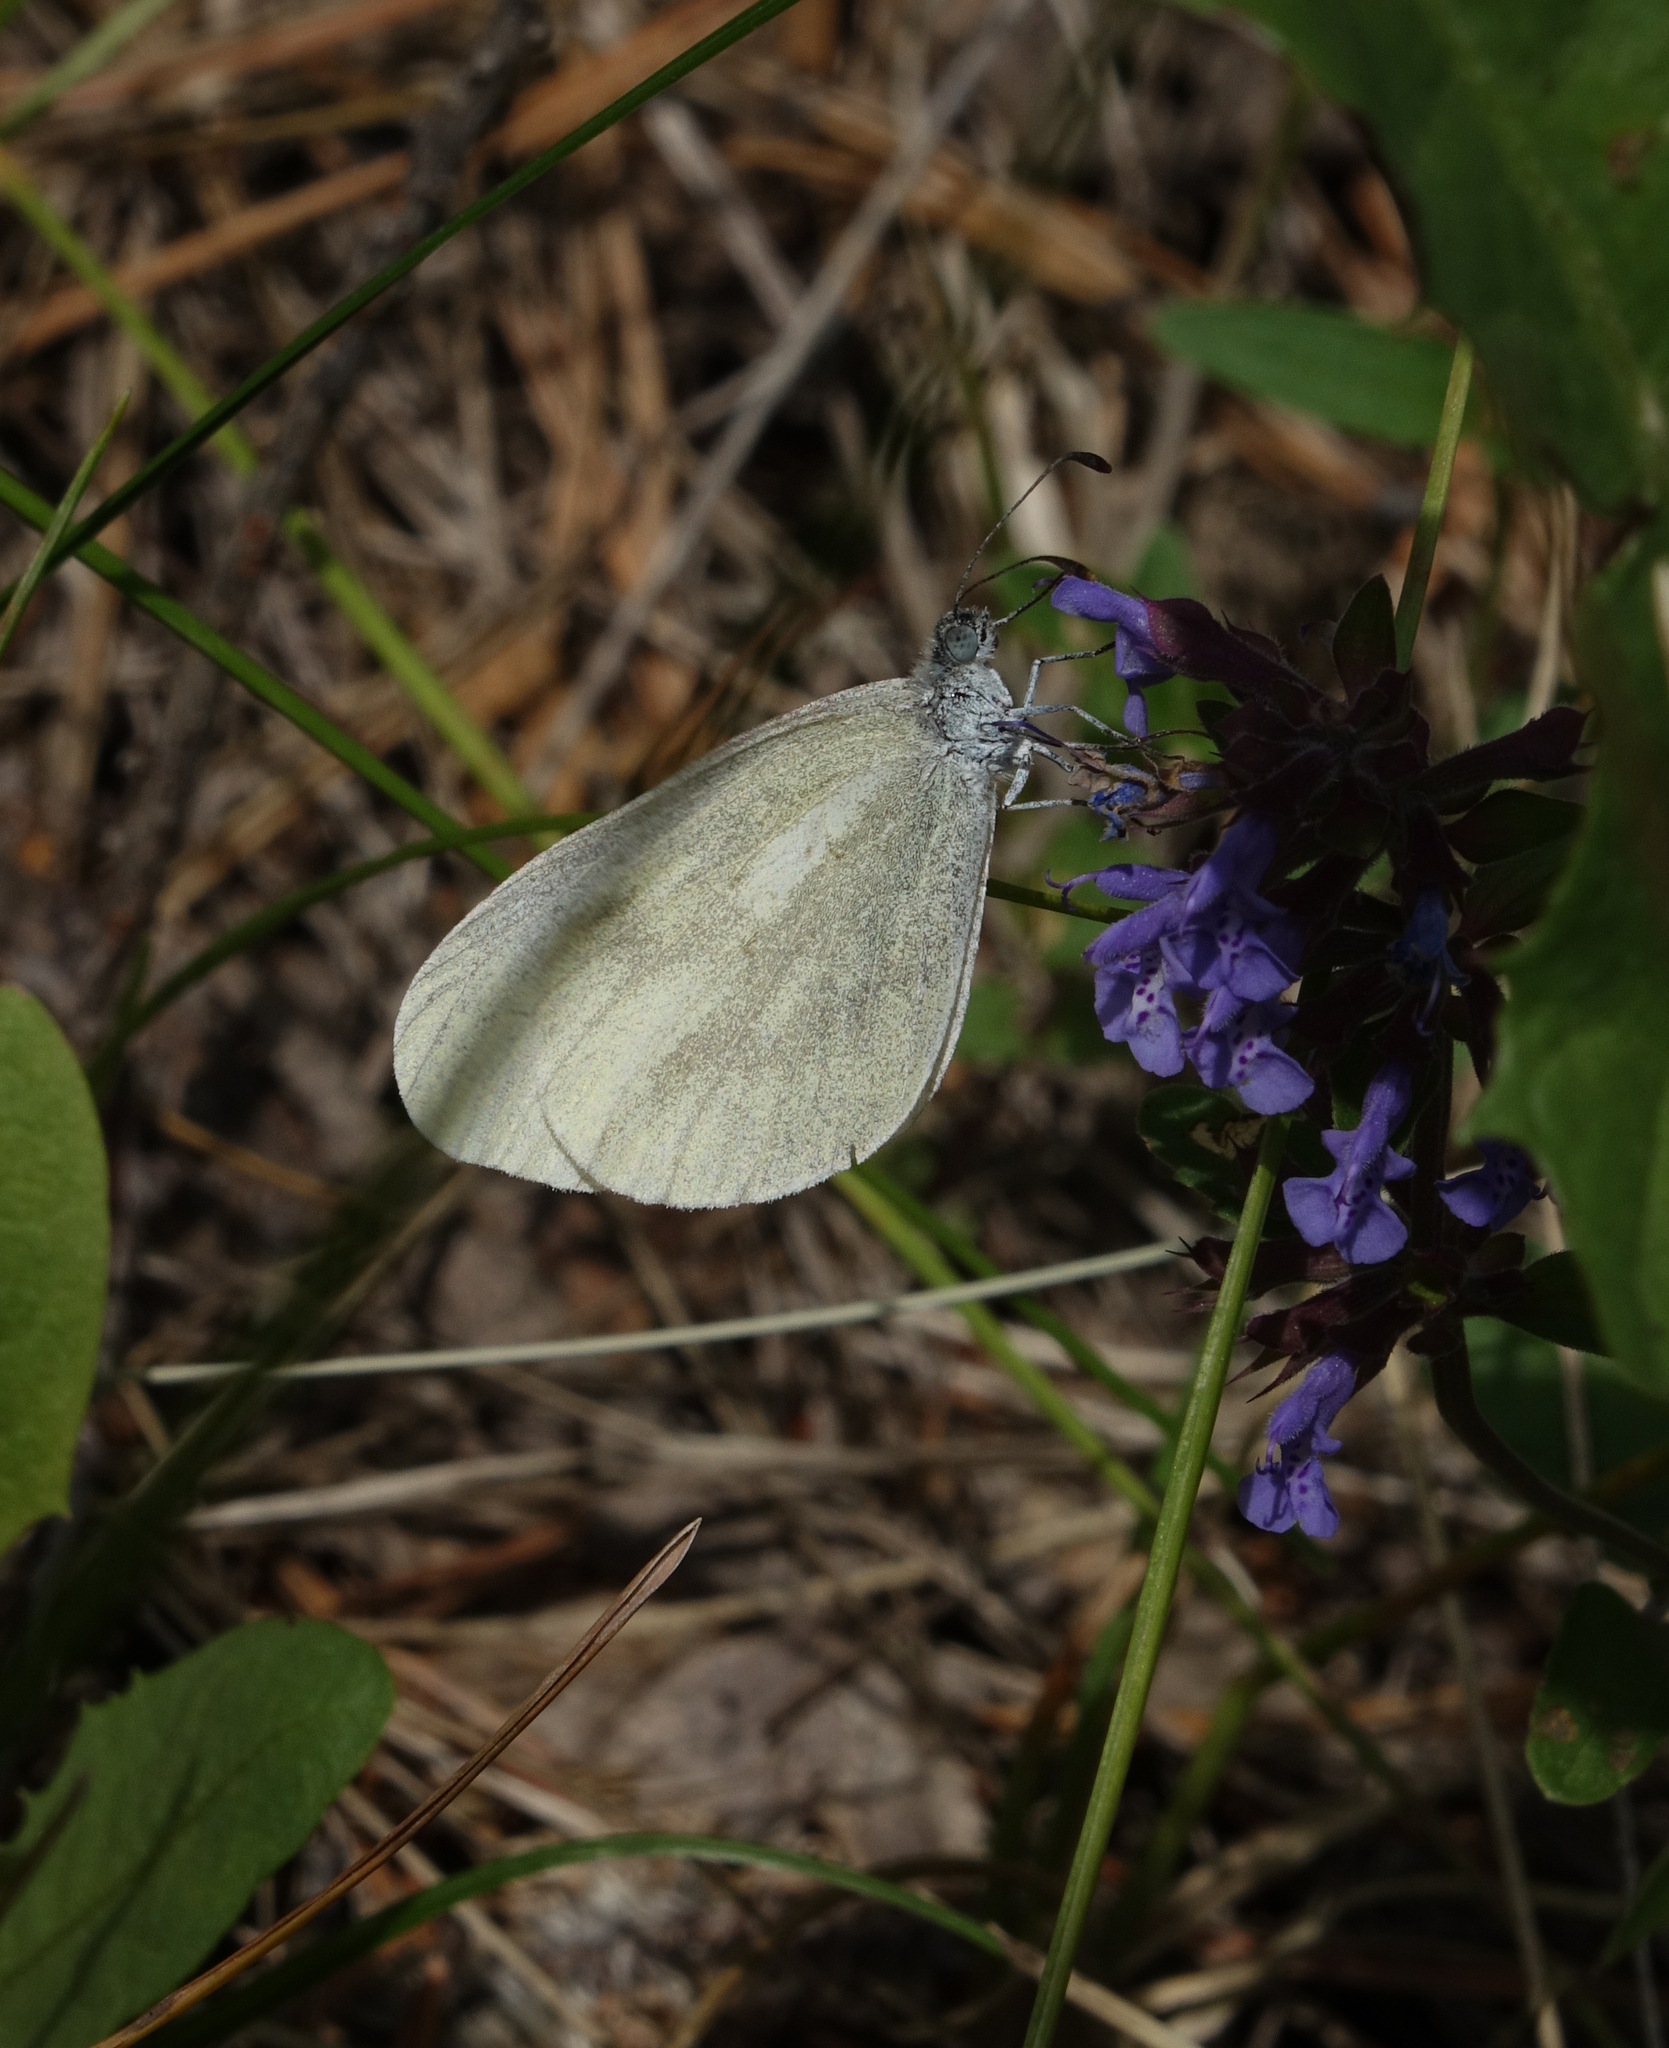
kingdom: Plantae
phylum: Tracheophyta
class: Magnoliopsida
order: Lamiales
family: Lamiaceae
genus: Dracocephalum
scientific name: Dracocephalum nutans
